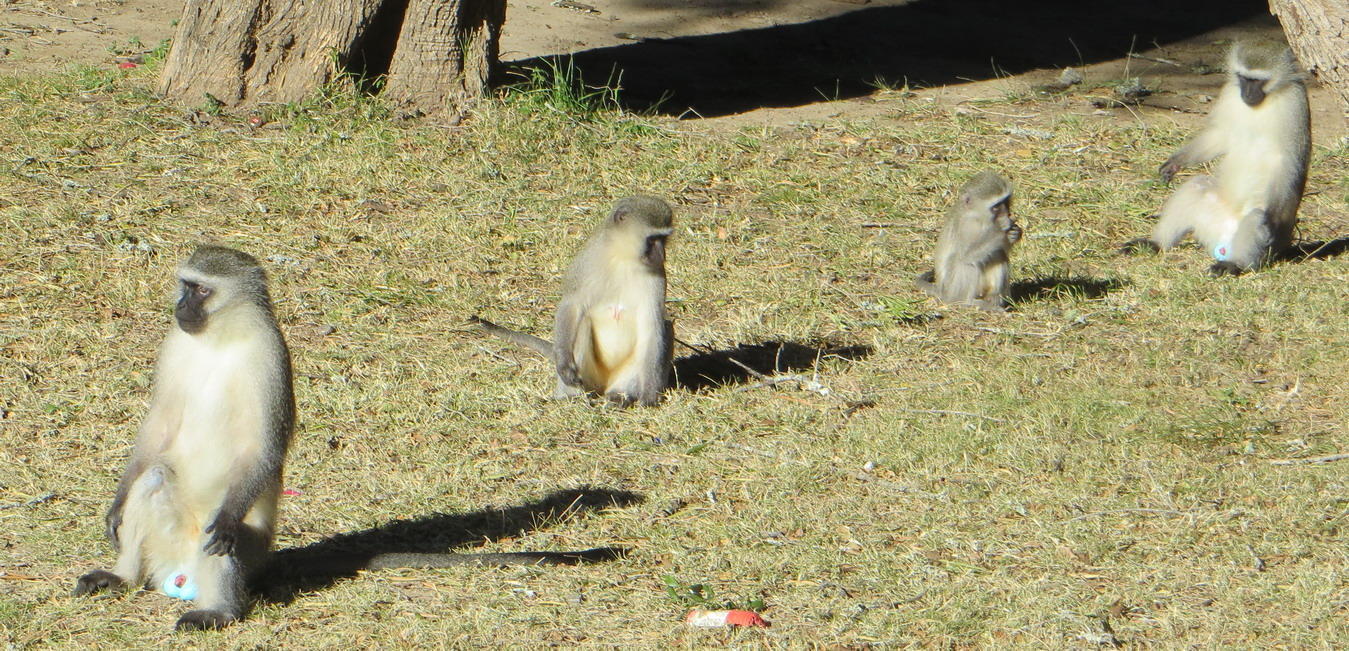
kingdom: Animalia
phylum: Chordata
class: Mammalia
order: Primates
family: Cercopithecidae
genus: Chlorocebus
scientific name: Chlorocebus pygerythrus
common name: Vervet monkey
